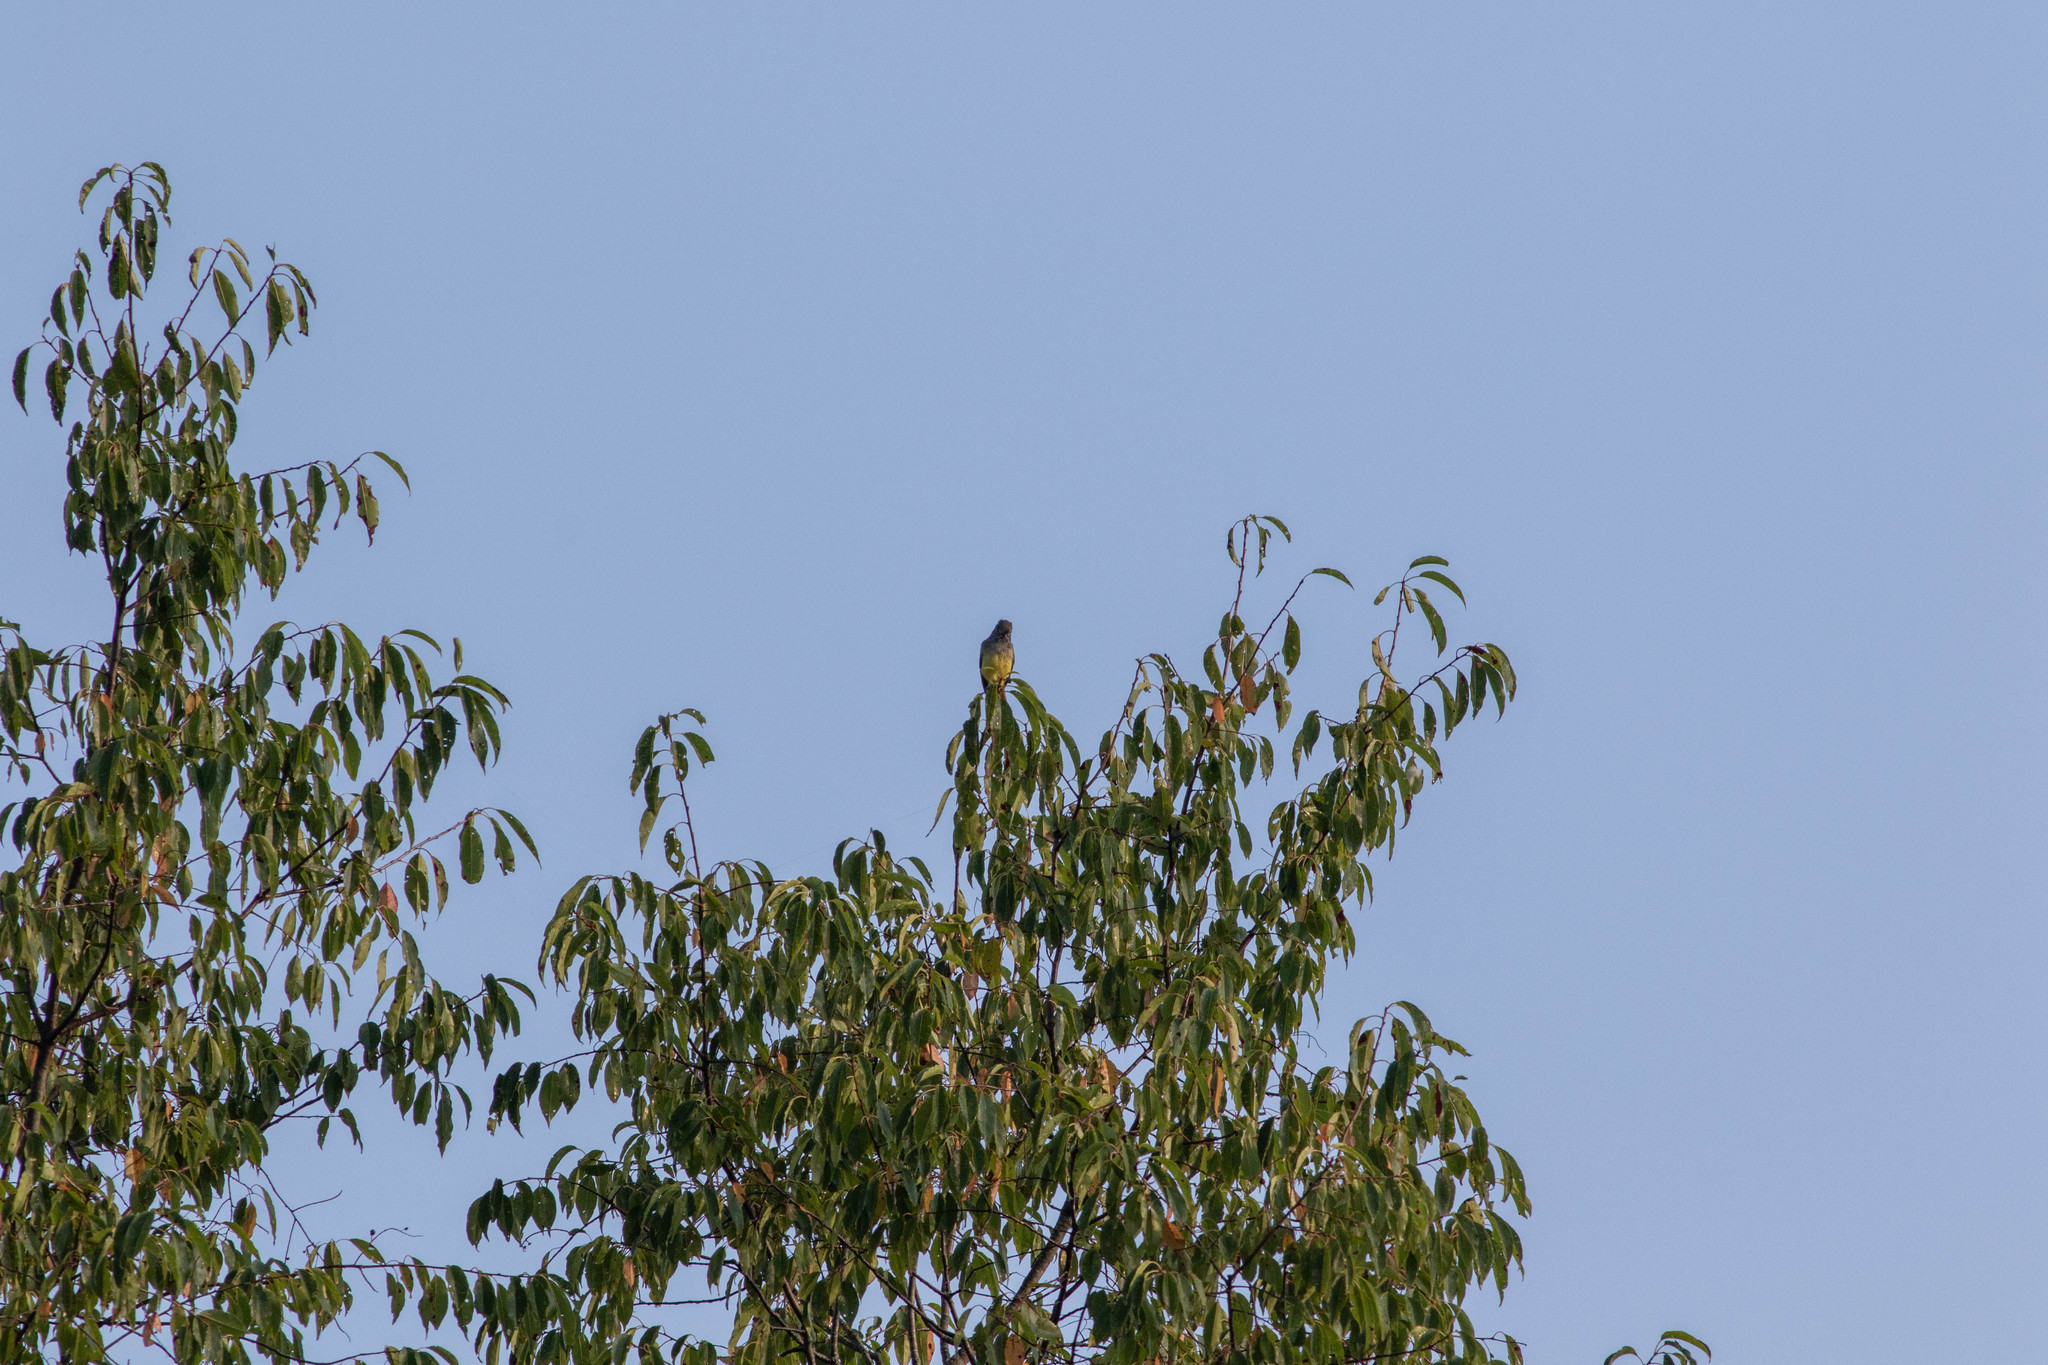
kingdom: Animalia
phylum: Chordata
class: Aves
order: Passeriformes
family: Tyrannidae
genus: Myiarchus
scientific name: Myiarchus crinitus
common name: Great crested flycatcher
